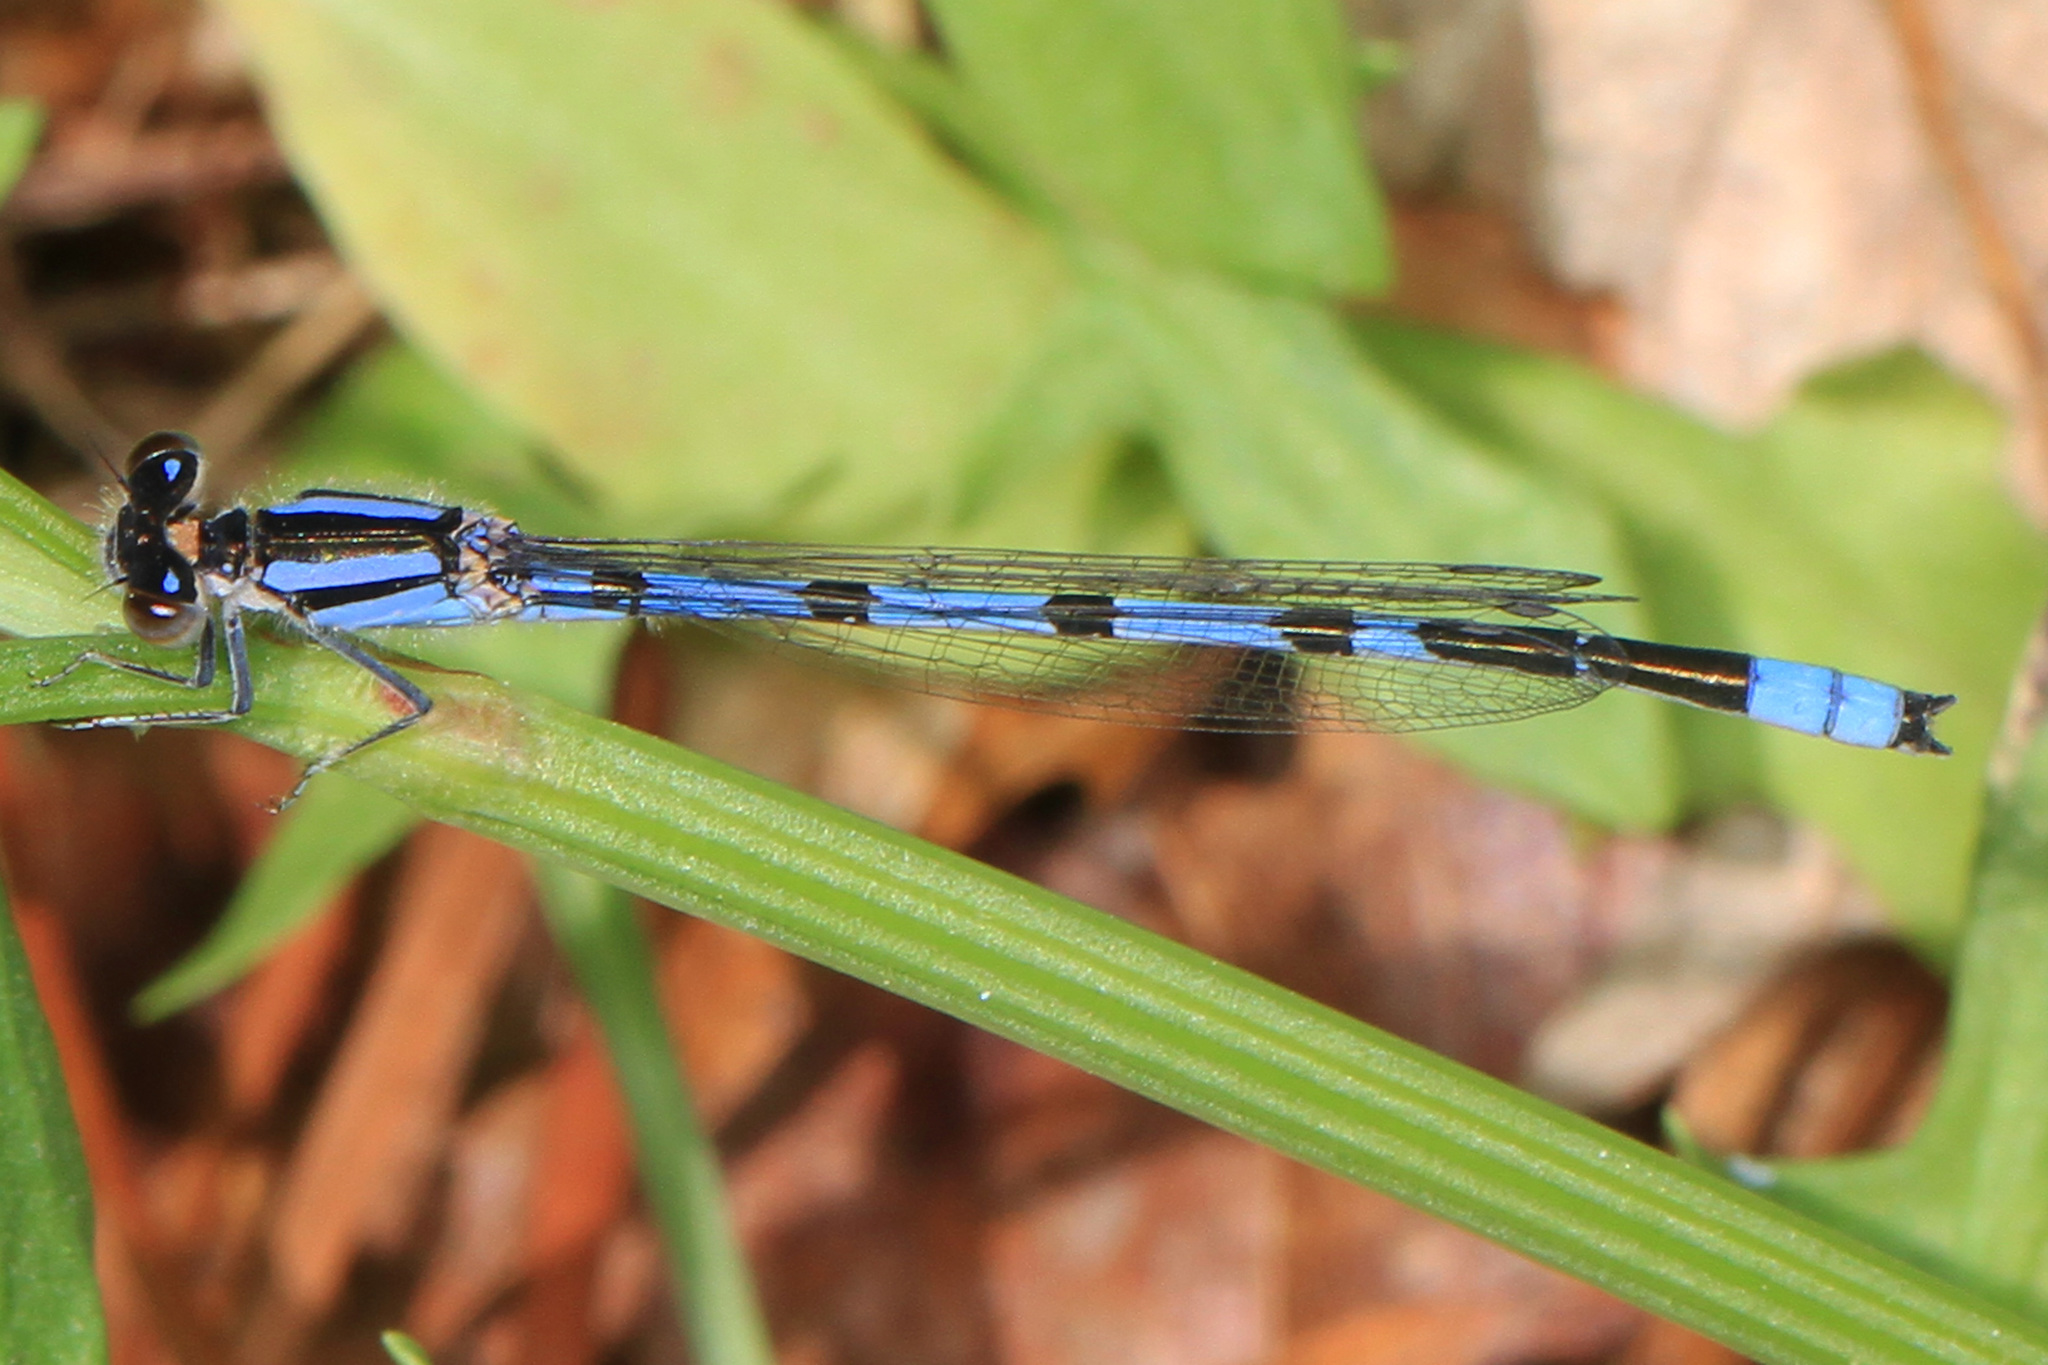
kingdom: Animalia
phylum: Arthropoda
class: Insecta
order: Odonata
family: Coenagrionidae
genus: Enallagma
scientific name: Enallagma civile
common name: Damselfly
